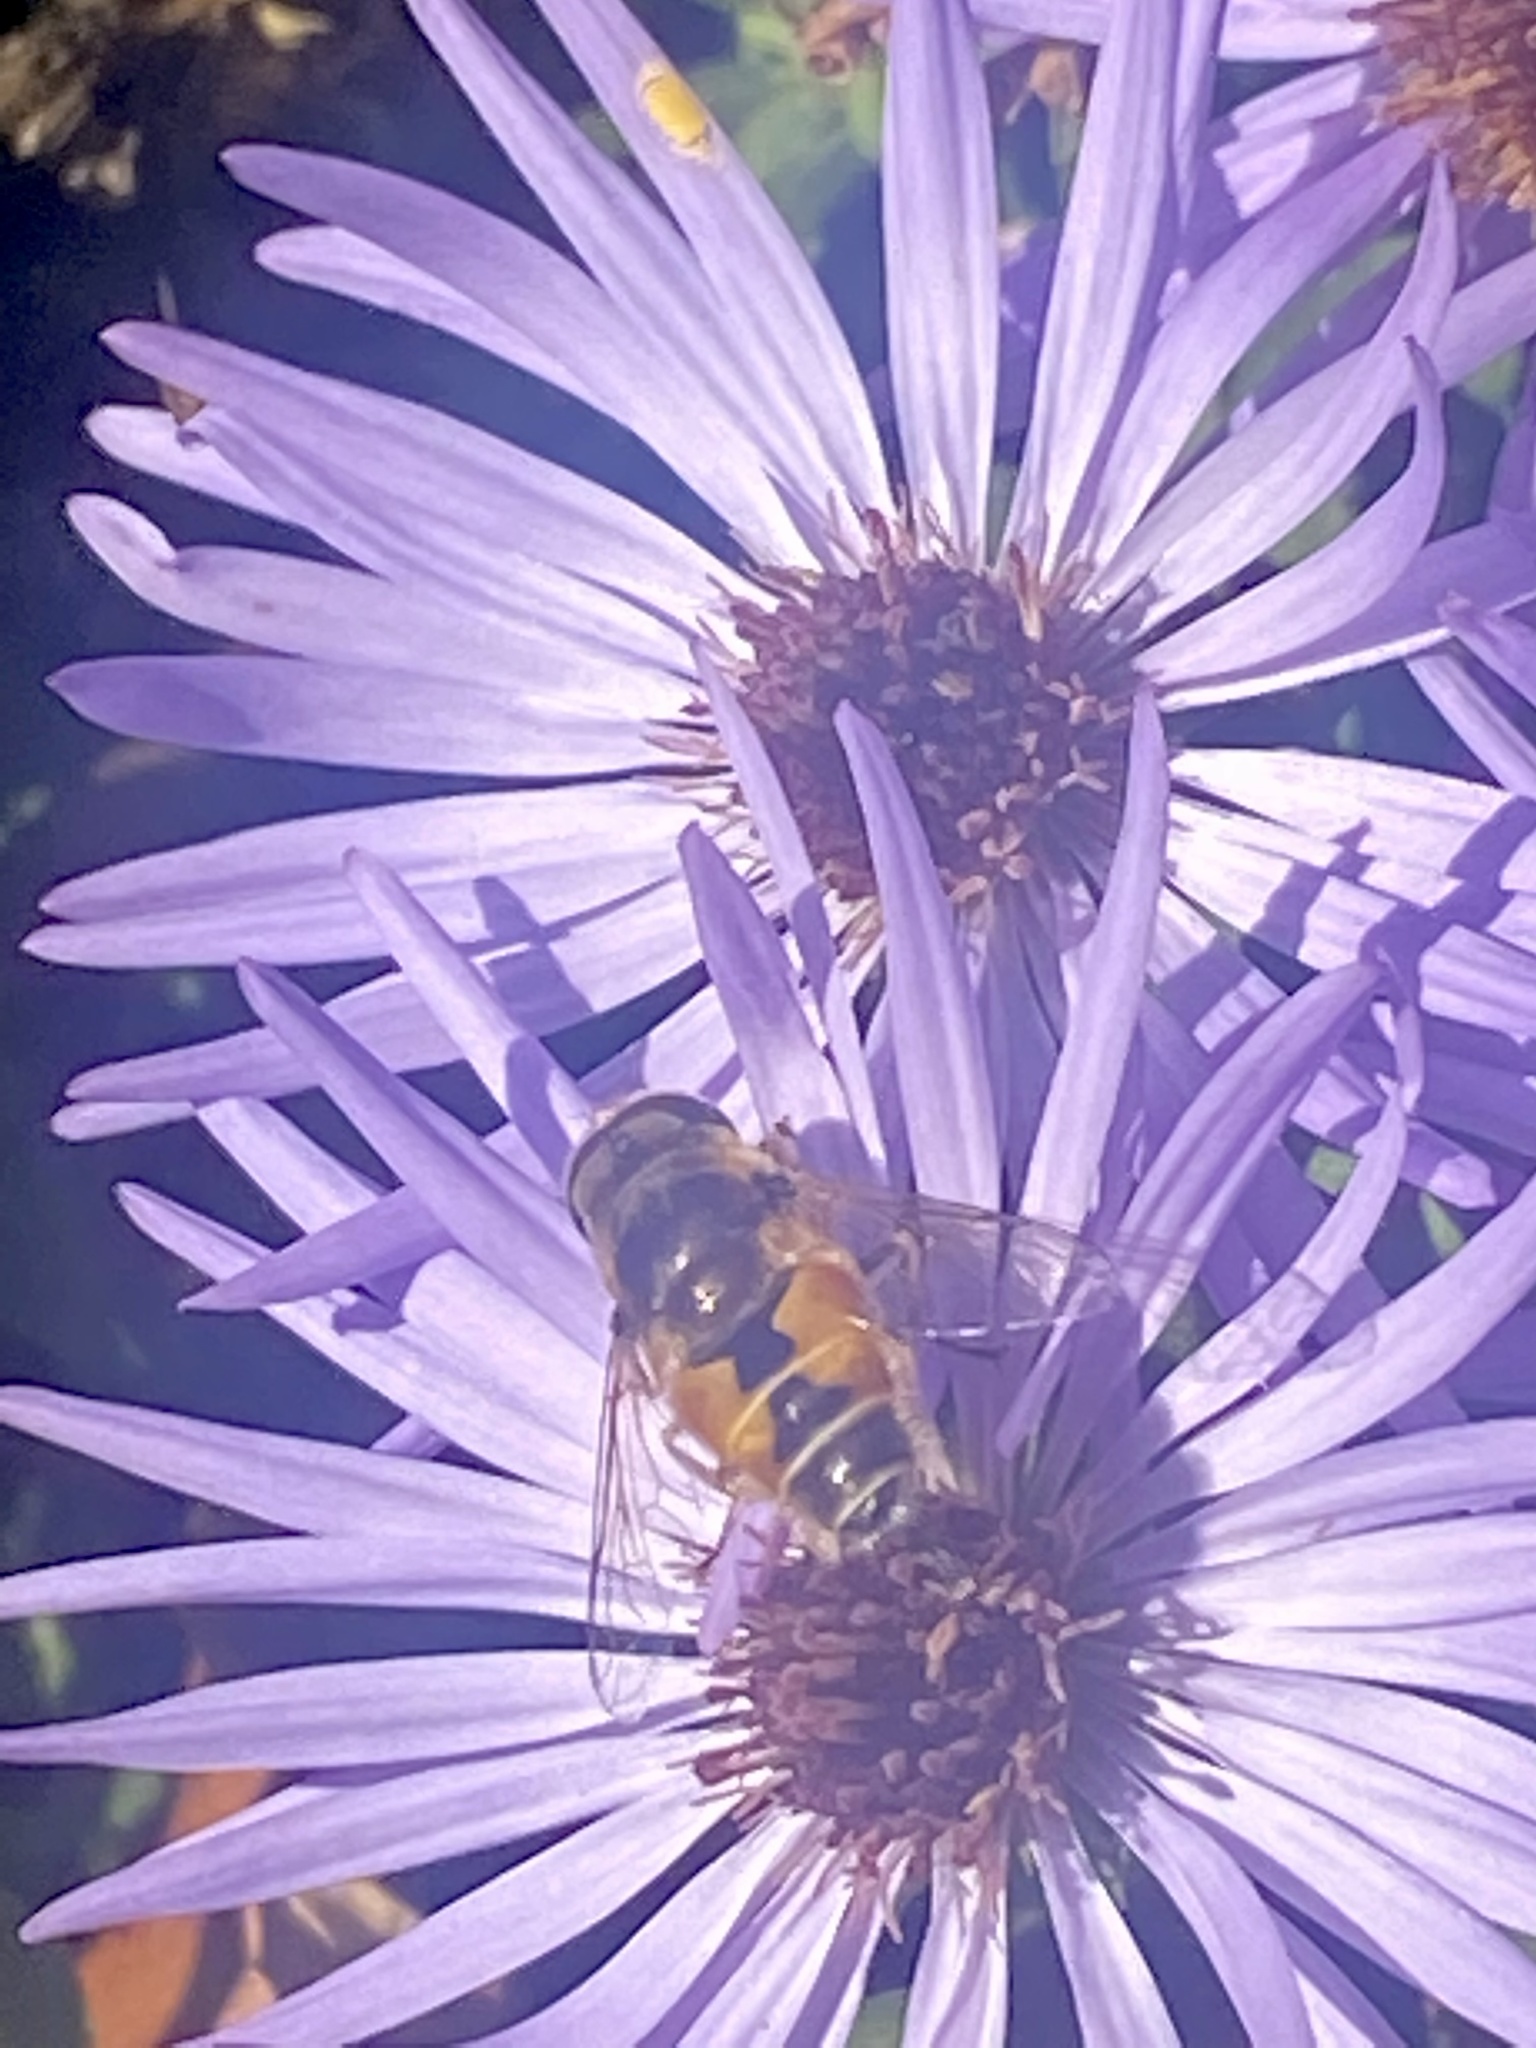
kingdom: Animalia
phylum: Arthropoda
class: Insecta
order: Diptera
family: Syrphidae
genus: Eristalis
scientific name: Eristalis arbustorum
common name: Hover fly
